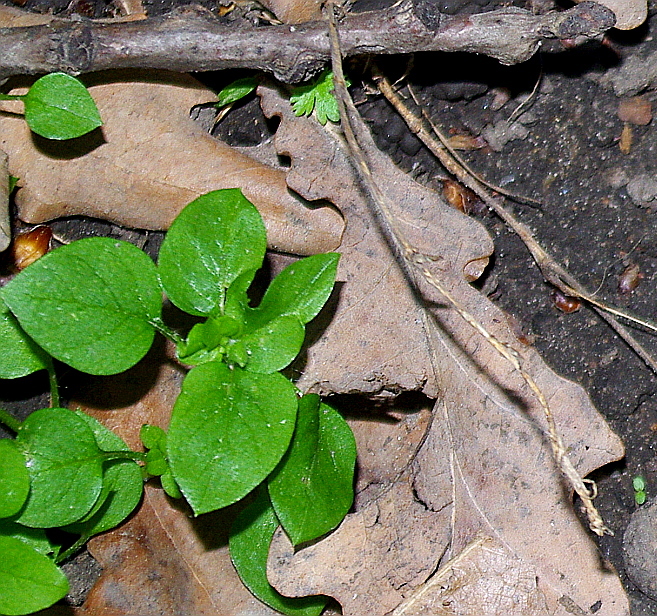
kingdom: Plantae
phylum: Tracheophyta
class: Magnoliopsida
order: Caryophyllales
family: Caryophyllaceae
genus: Stellaria
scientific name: Stellaria media
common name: Common chickweed
